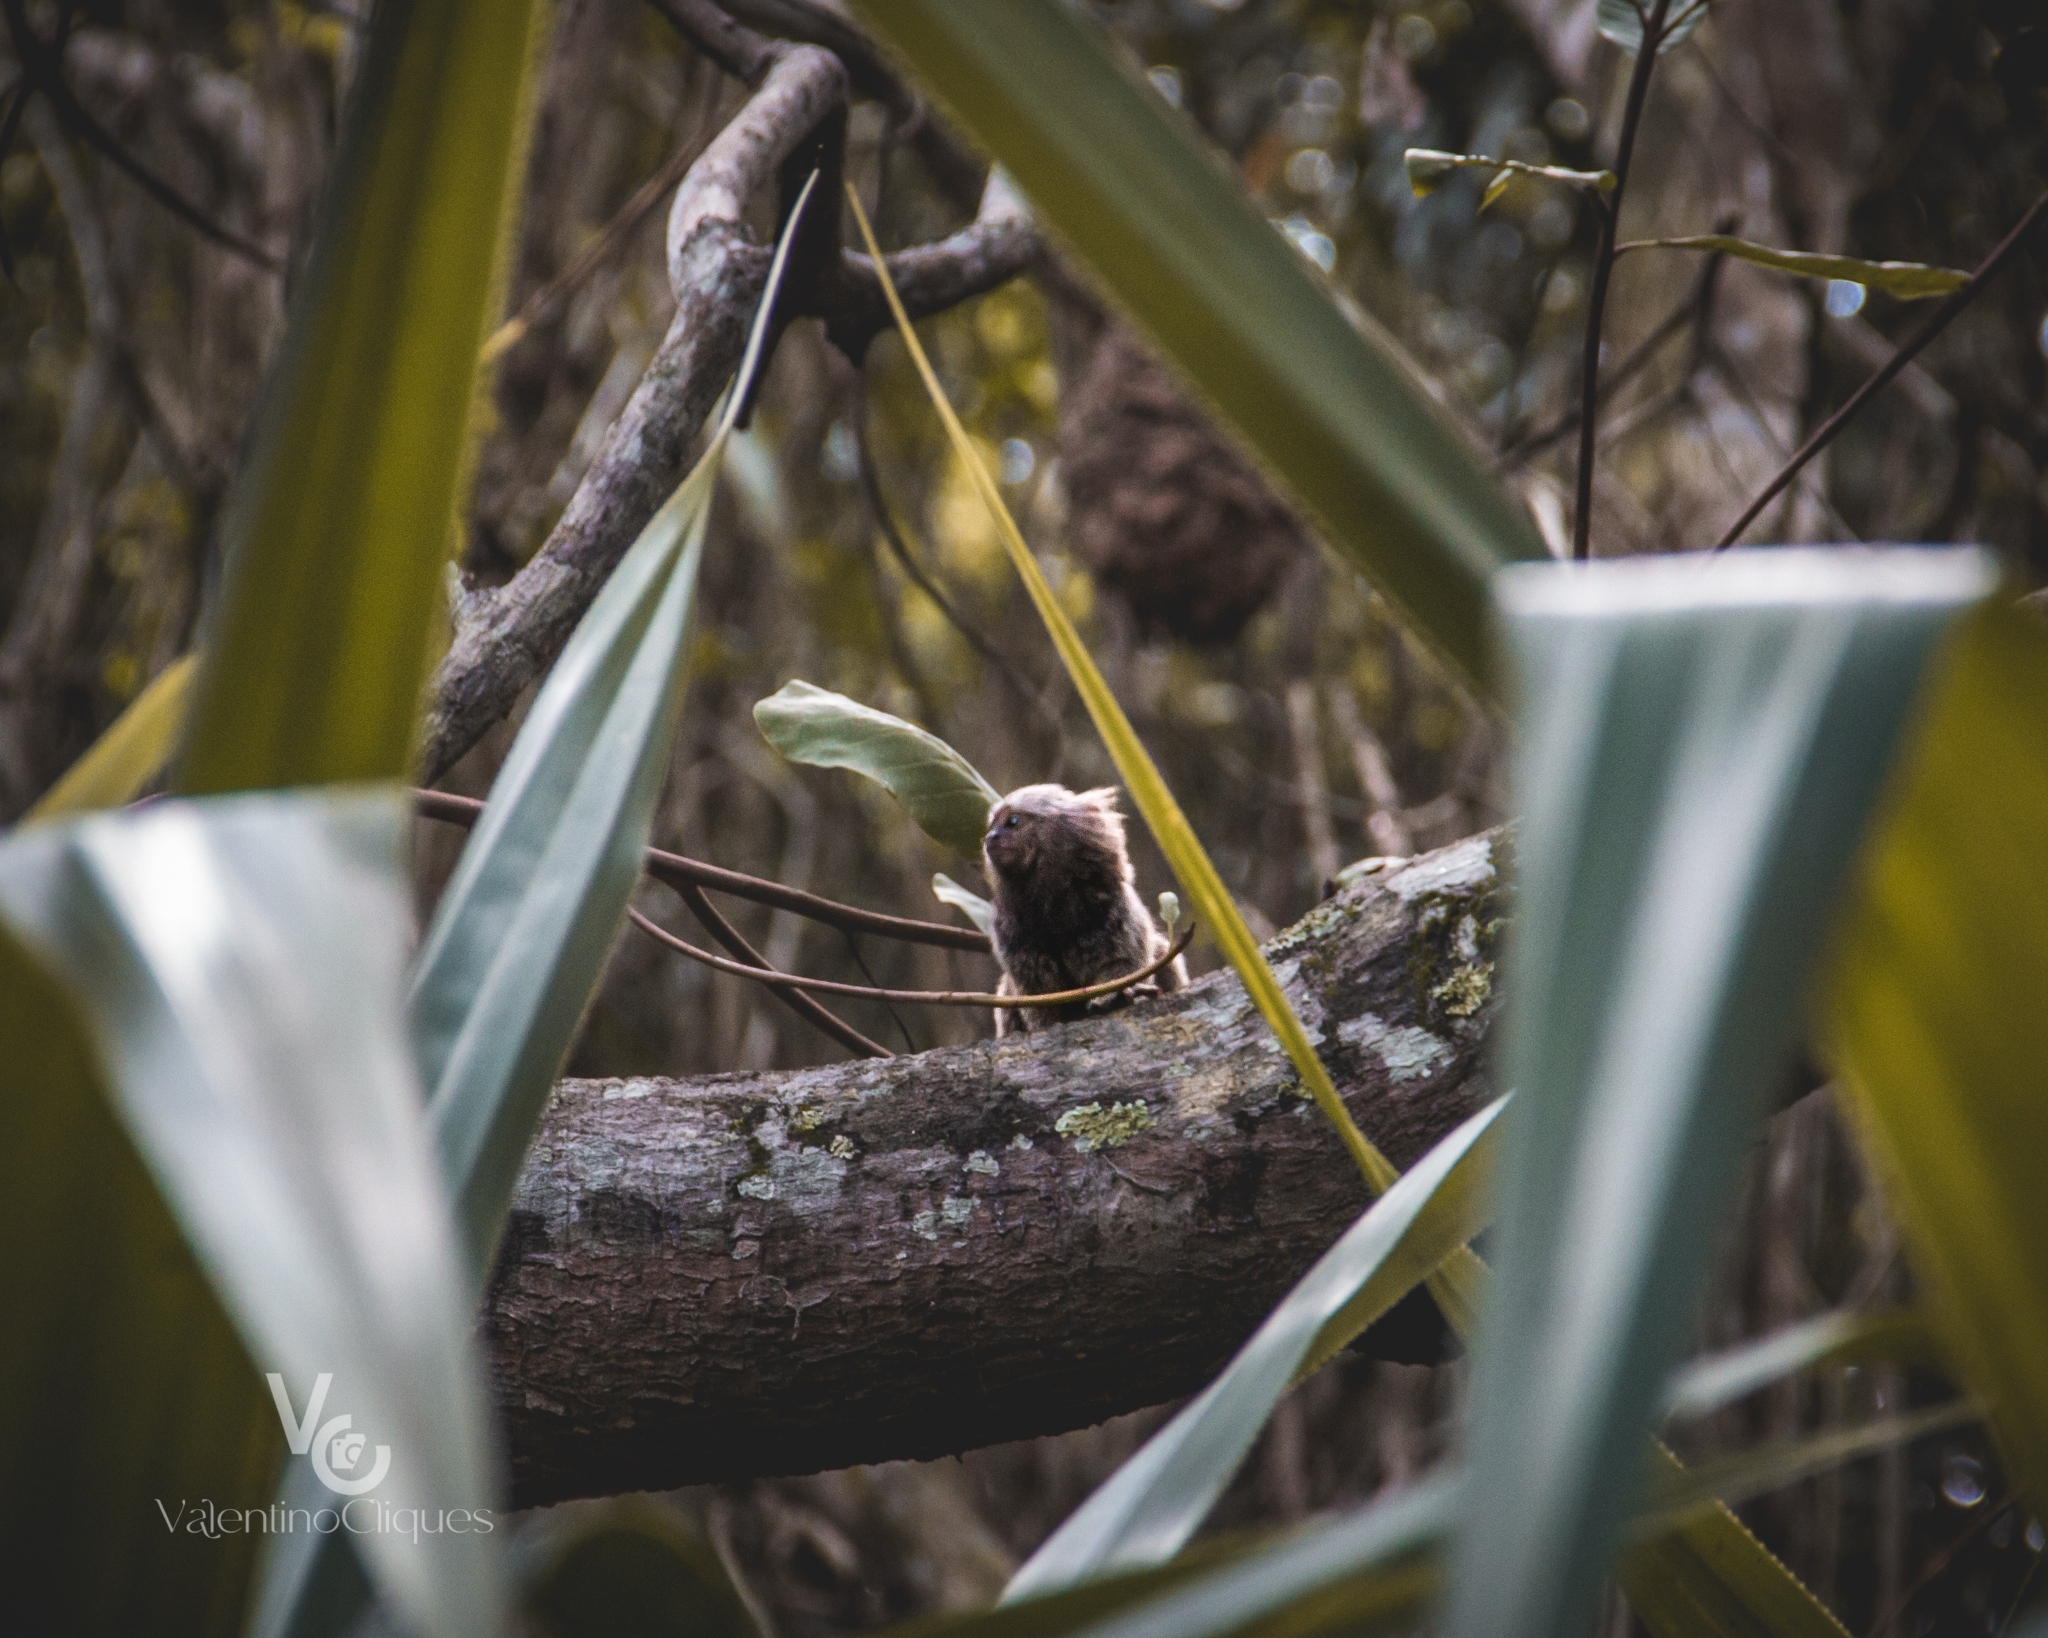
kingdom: Animalia
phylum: Chordata
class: Mammalia
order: Primates
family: Callitrichidae
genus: Callithrix
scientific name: Callithrix jacchus
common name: Common marmoset
